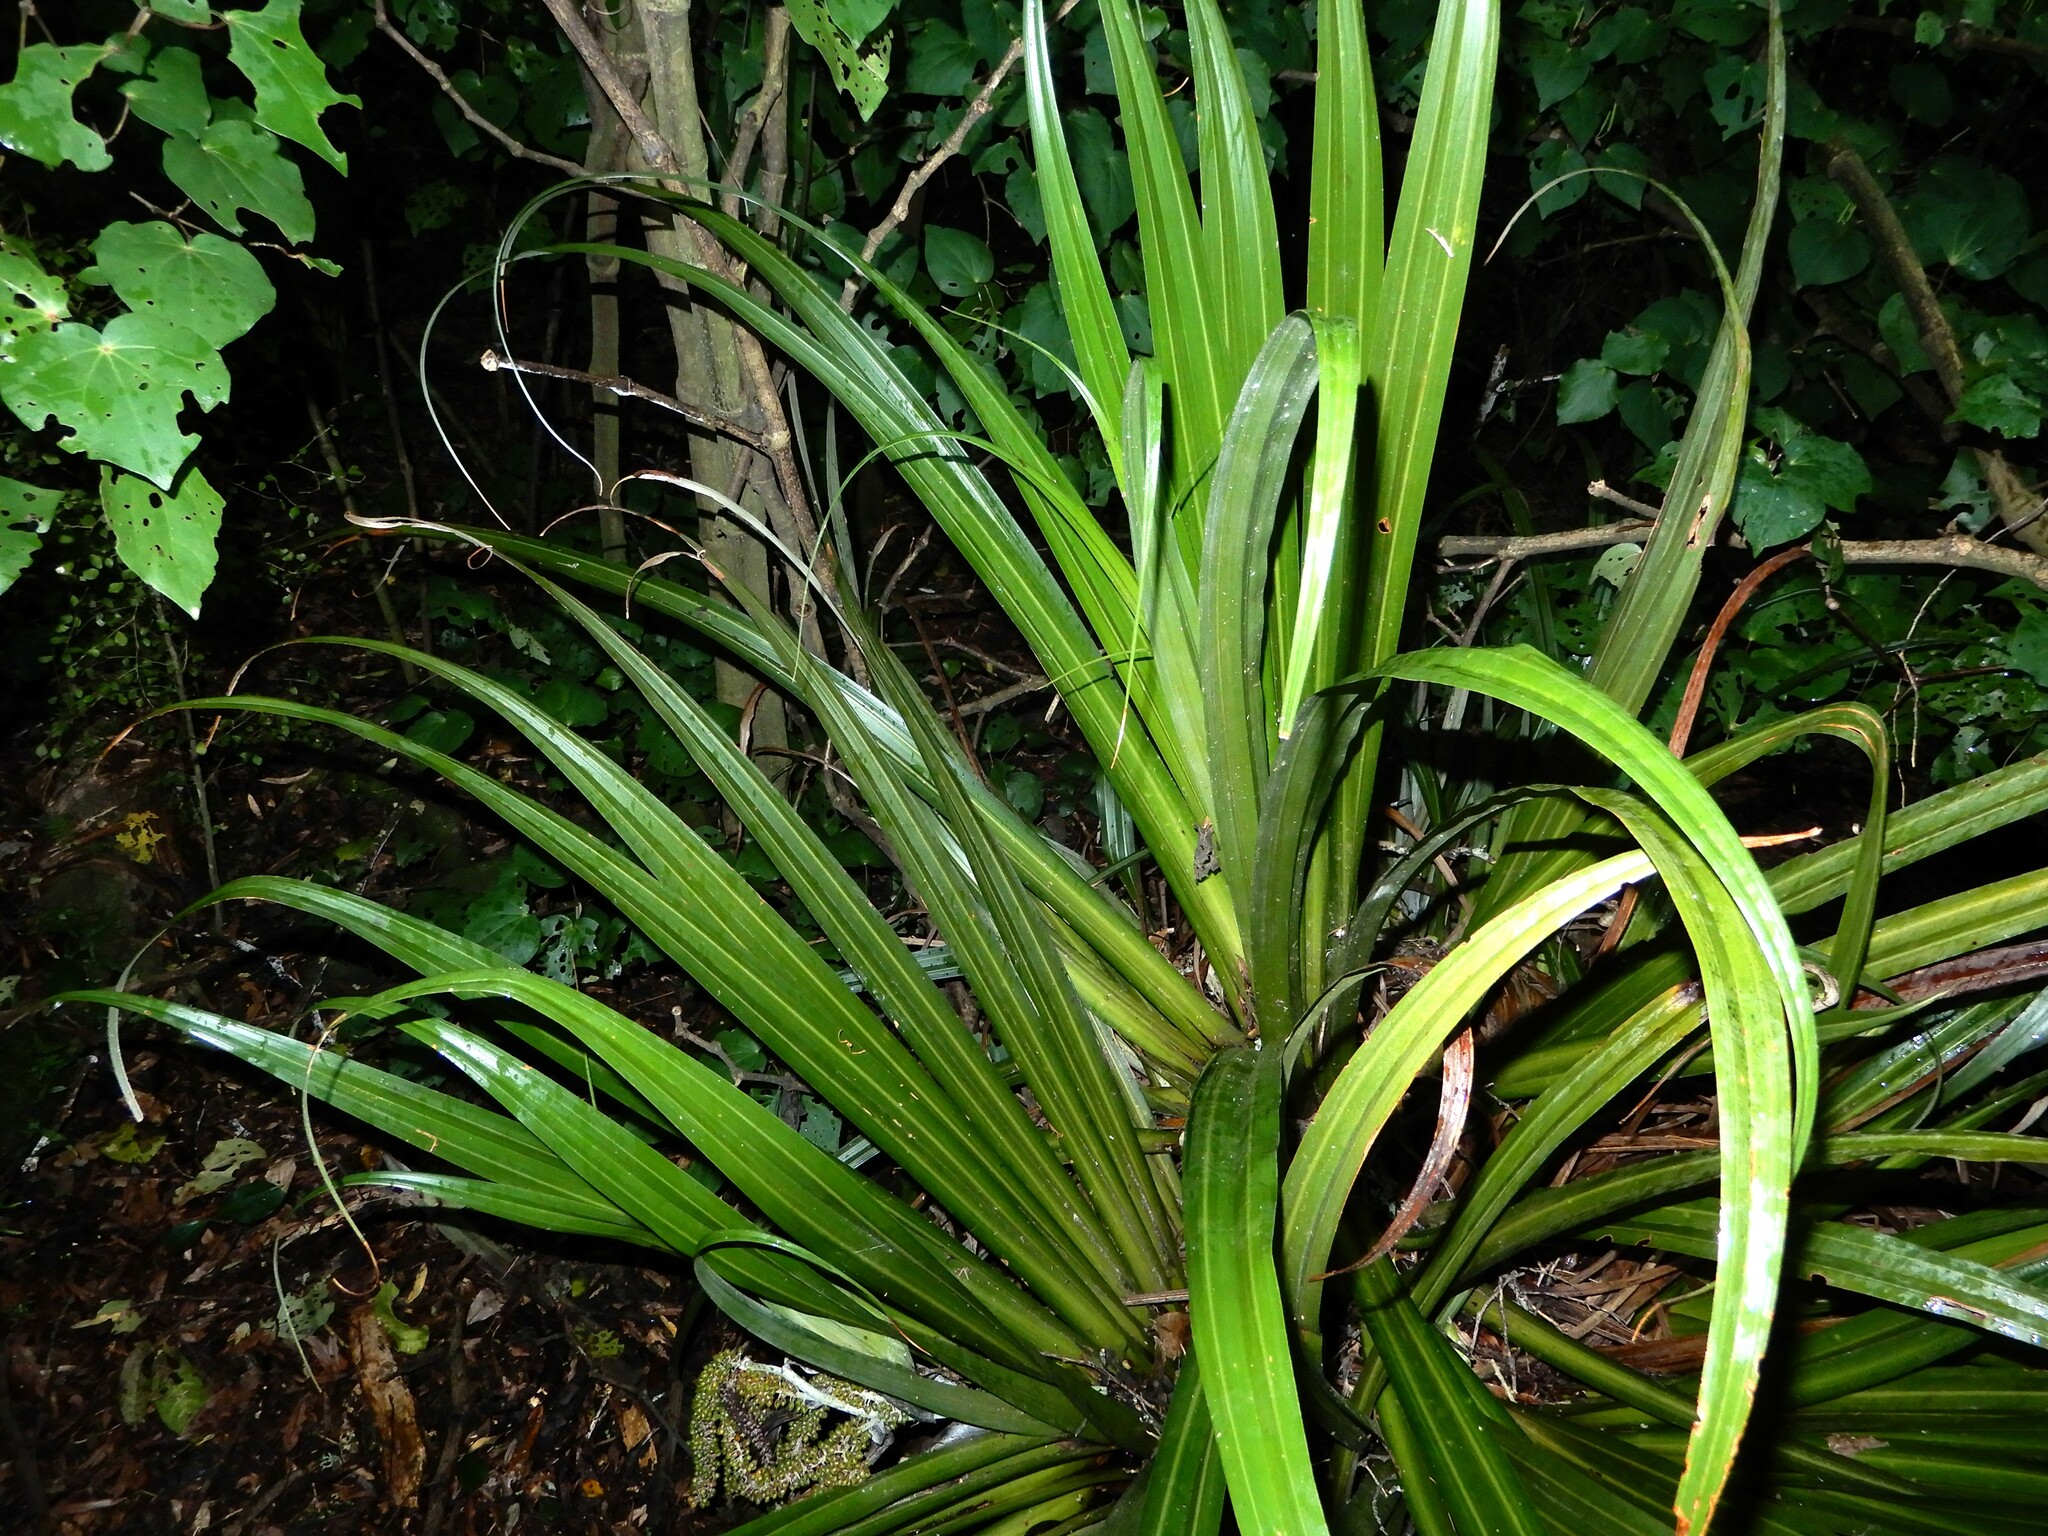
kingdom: Plantae
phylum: Tracheophyta
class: Liliopsida
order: Asparagales
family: Asteliaceae
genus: Astelia
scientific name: Astelia hastata
